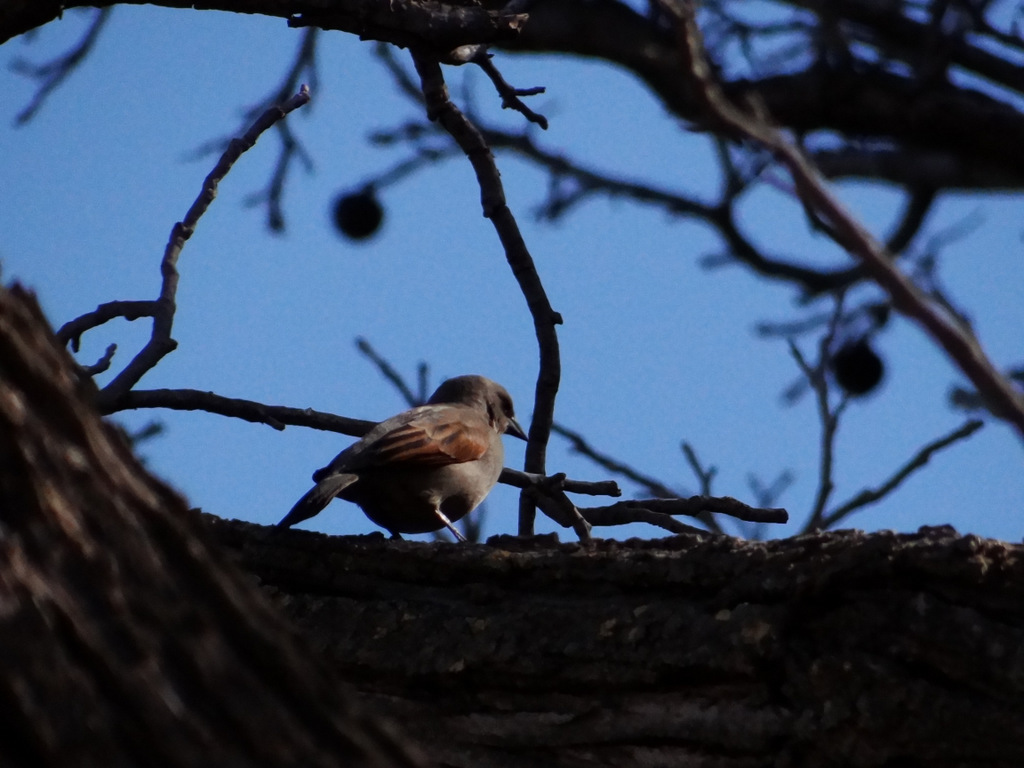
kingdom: Animalia
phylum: Chordata
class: Aves
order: Passeriformes
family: Icteridae
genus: Agelaioides
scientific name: Agelaioides badius
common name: Baywing
